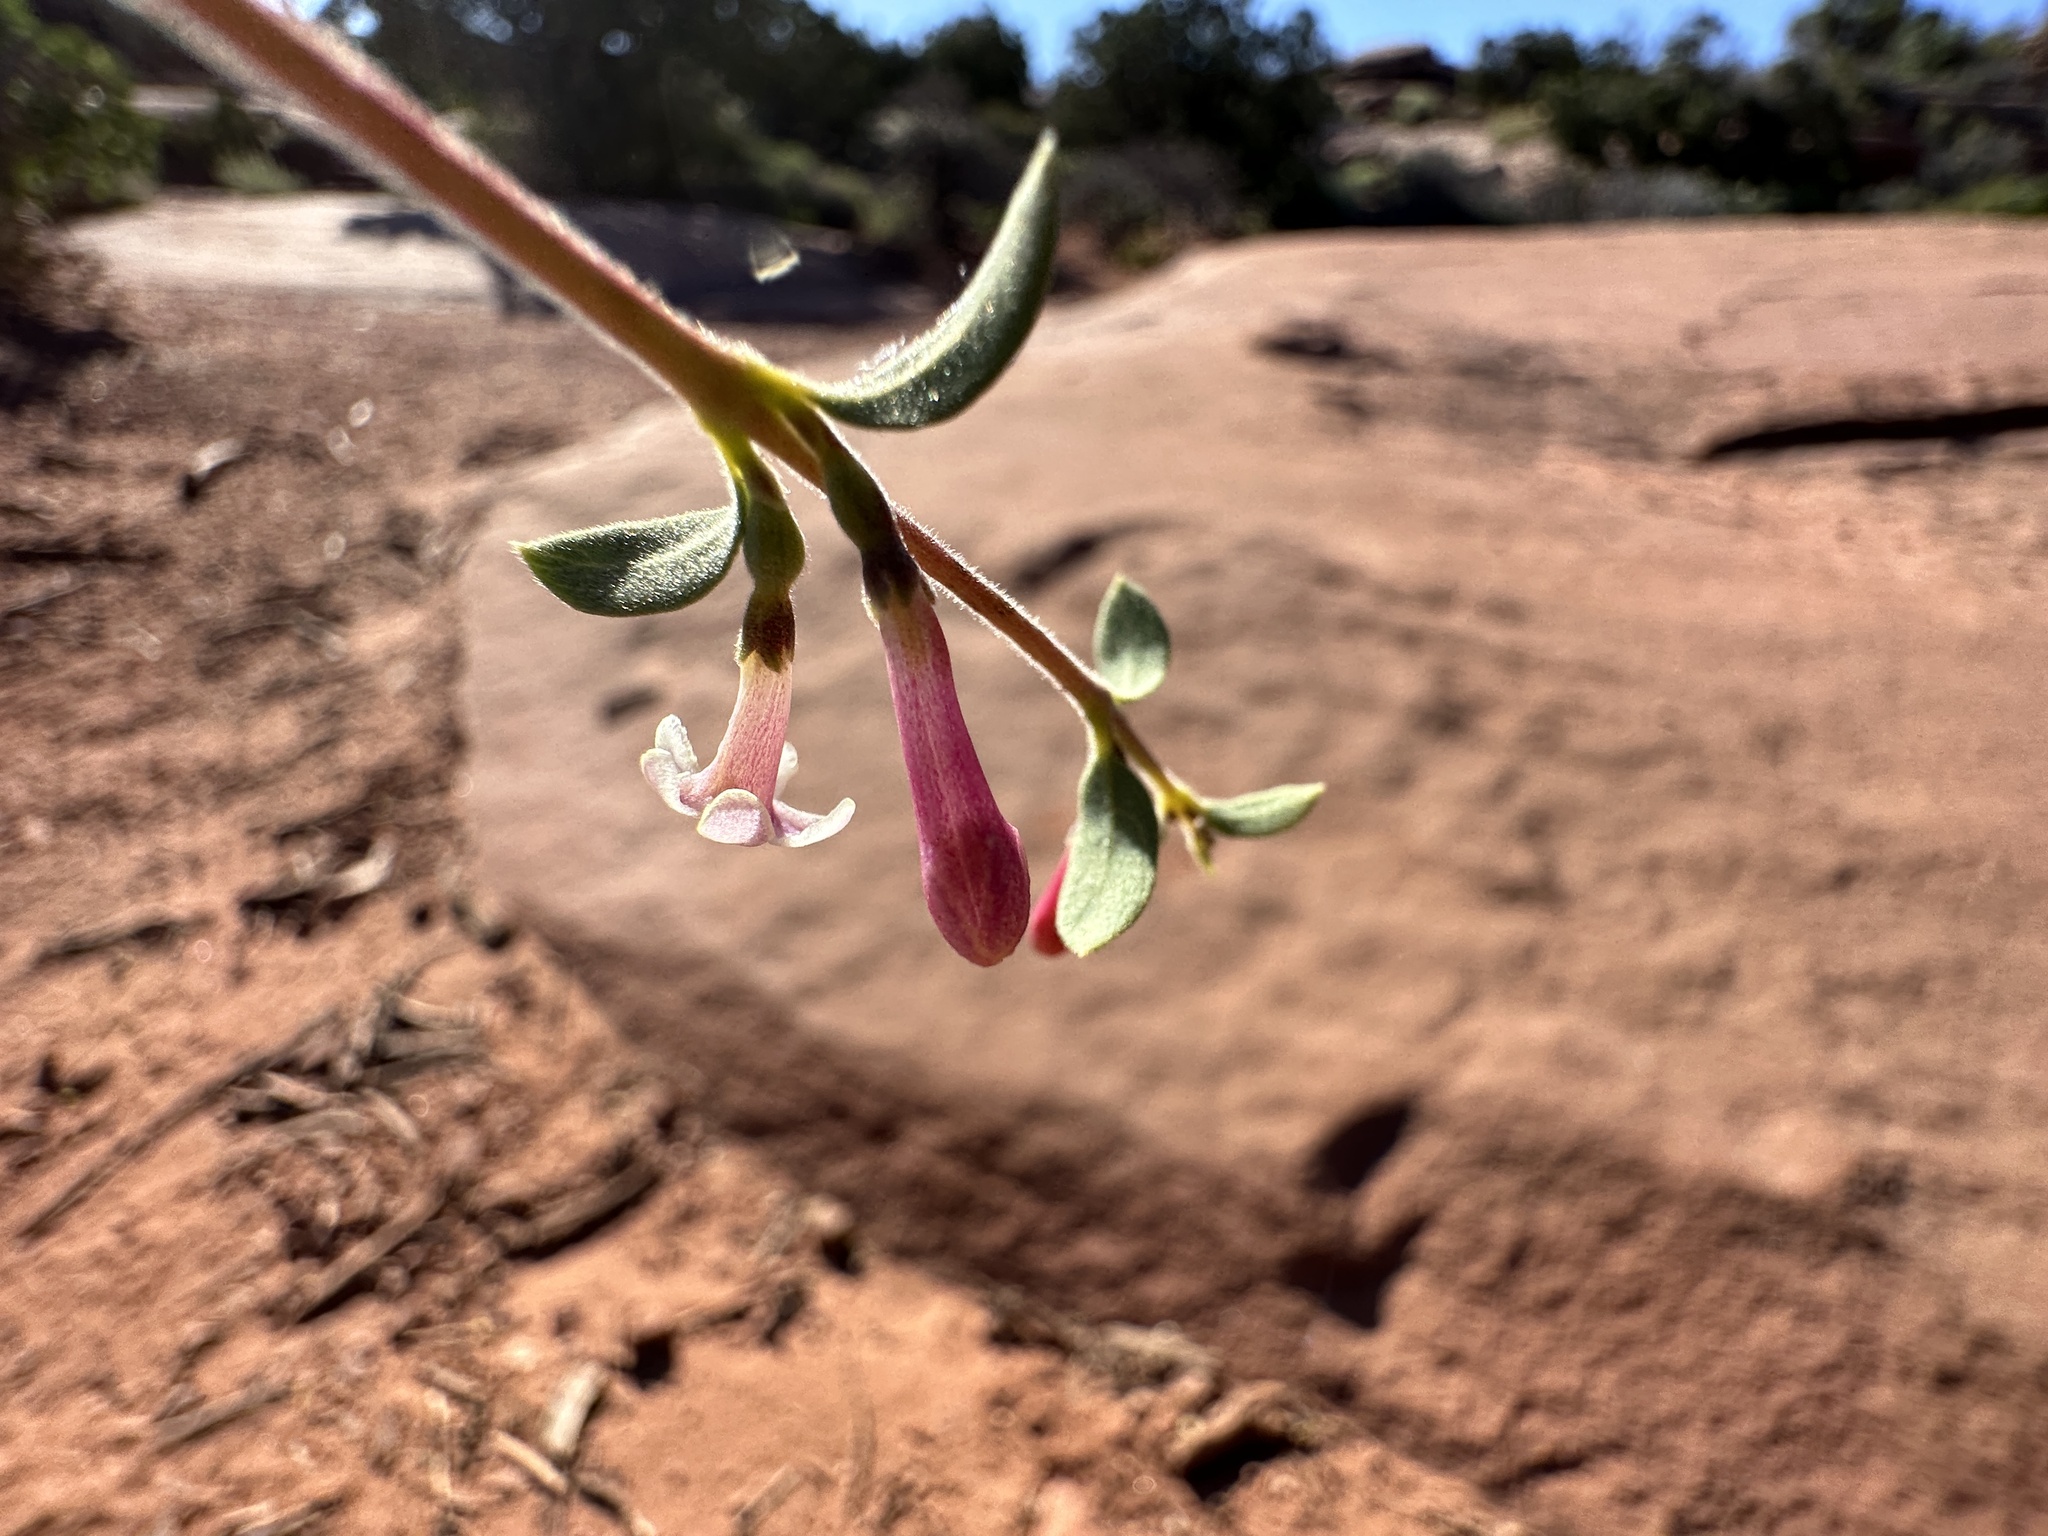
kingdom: Plantae
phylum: Tracheophyta
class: Magnoliopsida
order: Dipsacales
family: Caprifoliaceae
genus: Symphoricarpos
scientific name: Symphoricarpos longiflorus
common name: Fragrant snowberry
